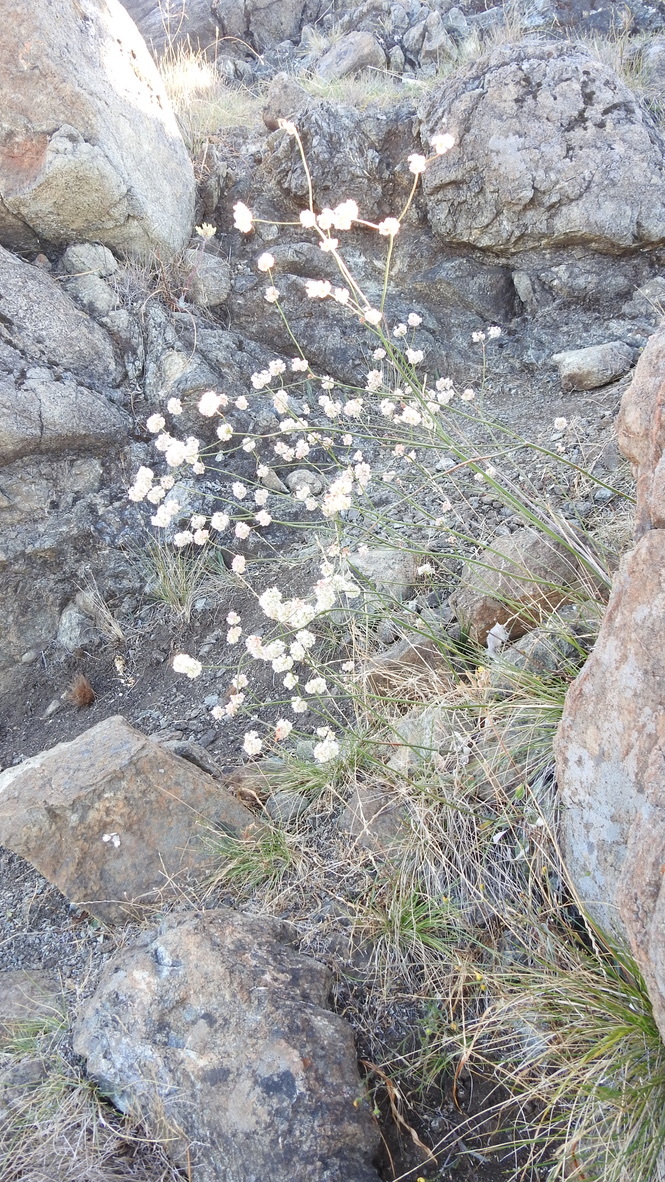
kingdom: Plantae
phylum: Tracheophyta
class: Magnoliopsida
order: Caryophyllales
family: Polygonaceae
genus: Eriogonum
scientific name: Eriogonum nudum
